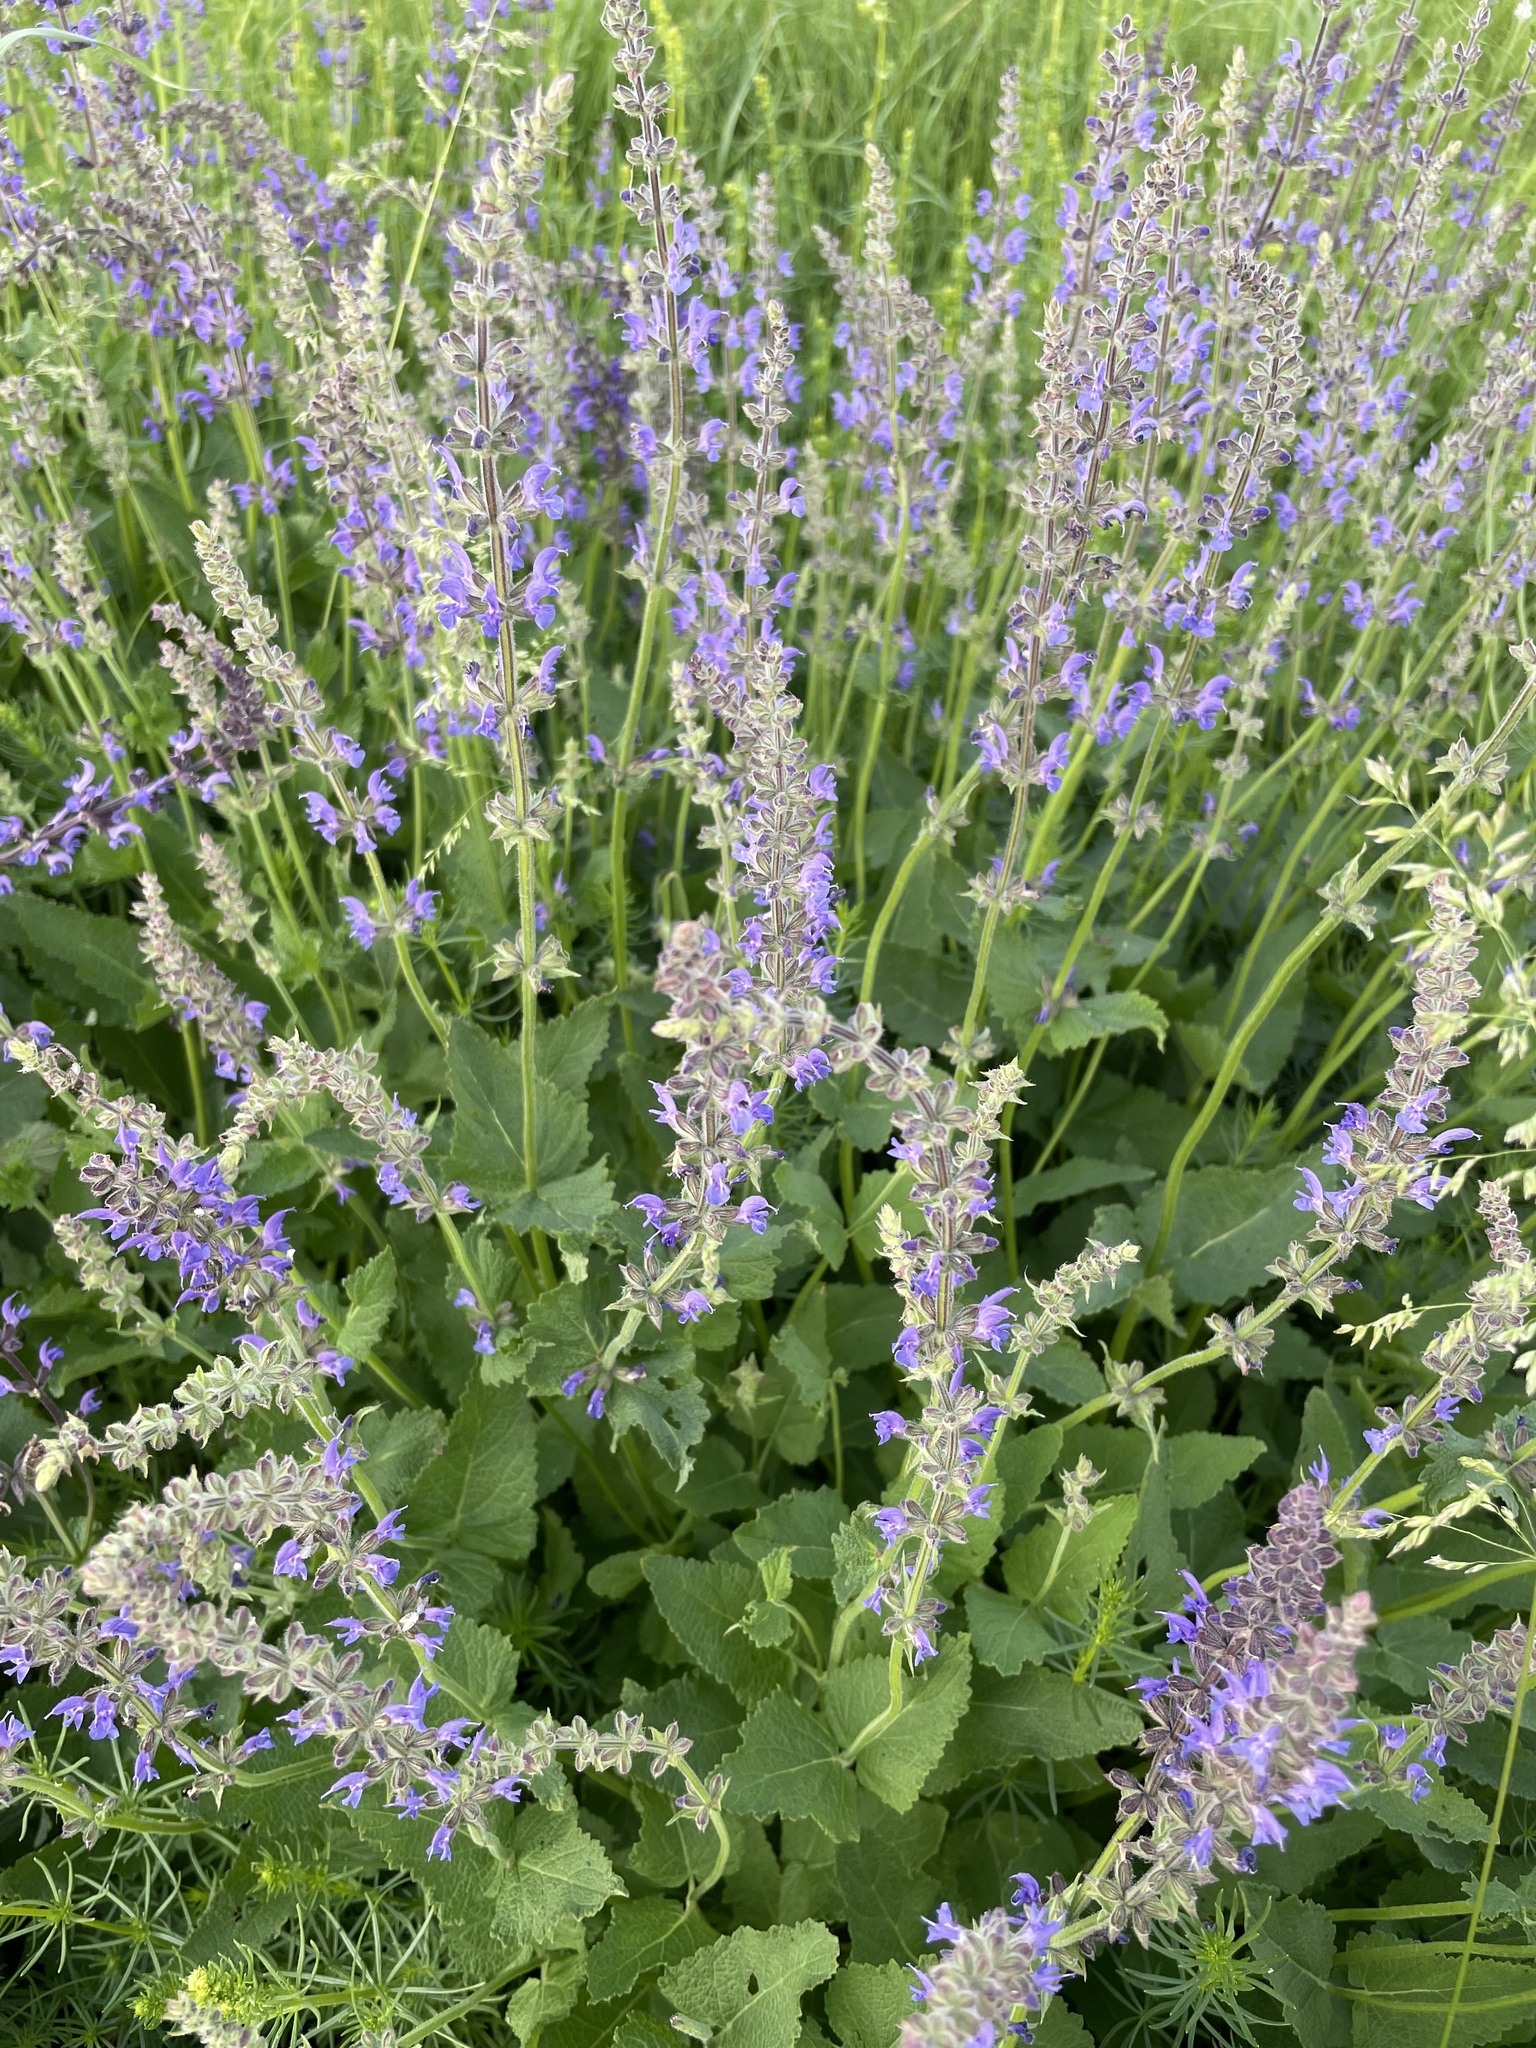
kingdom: Plantae
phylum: Tracheophyta
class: Magnoliopsida
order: Lamiales
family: Lamiaceae
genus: Salvia
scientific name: Salvia dumetorum
